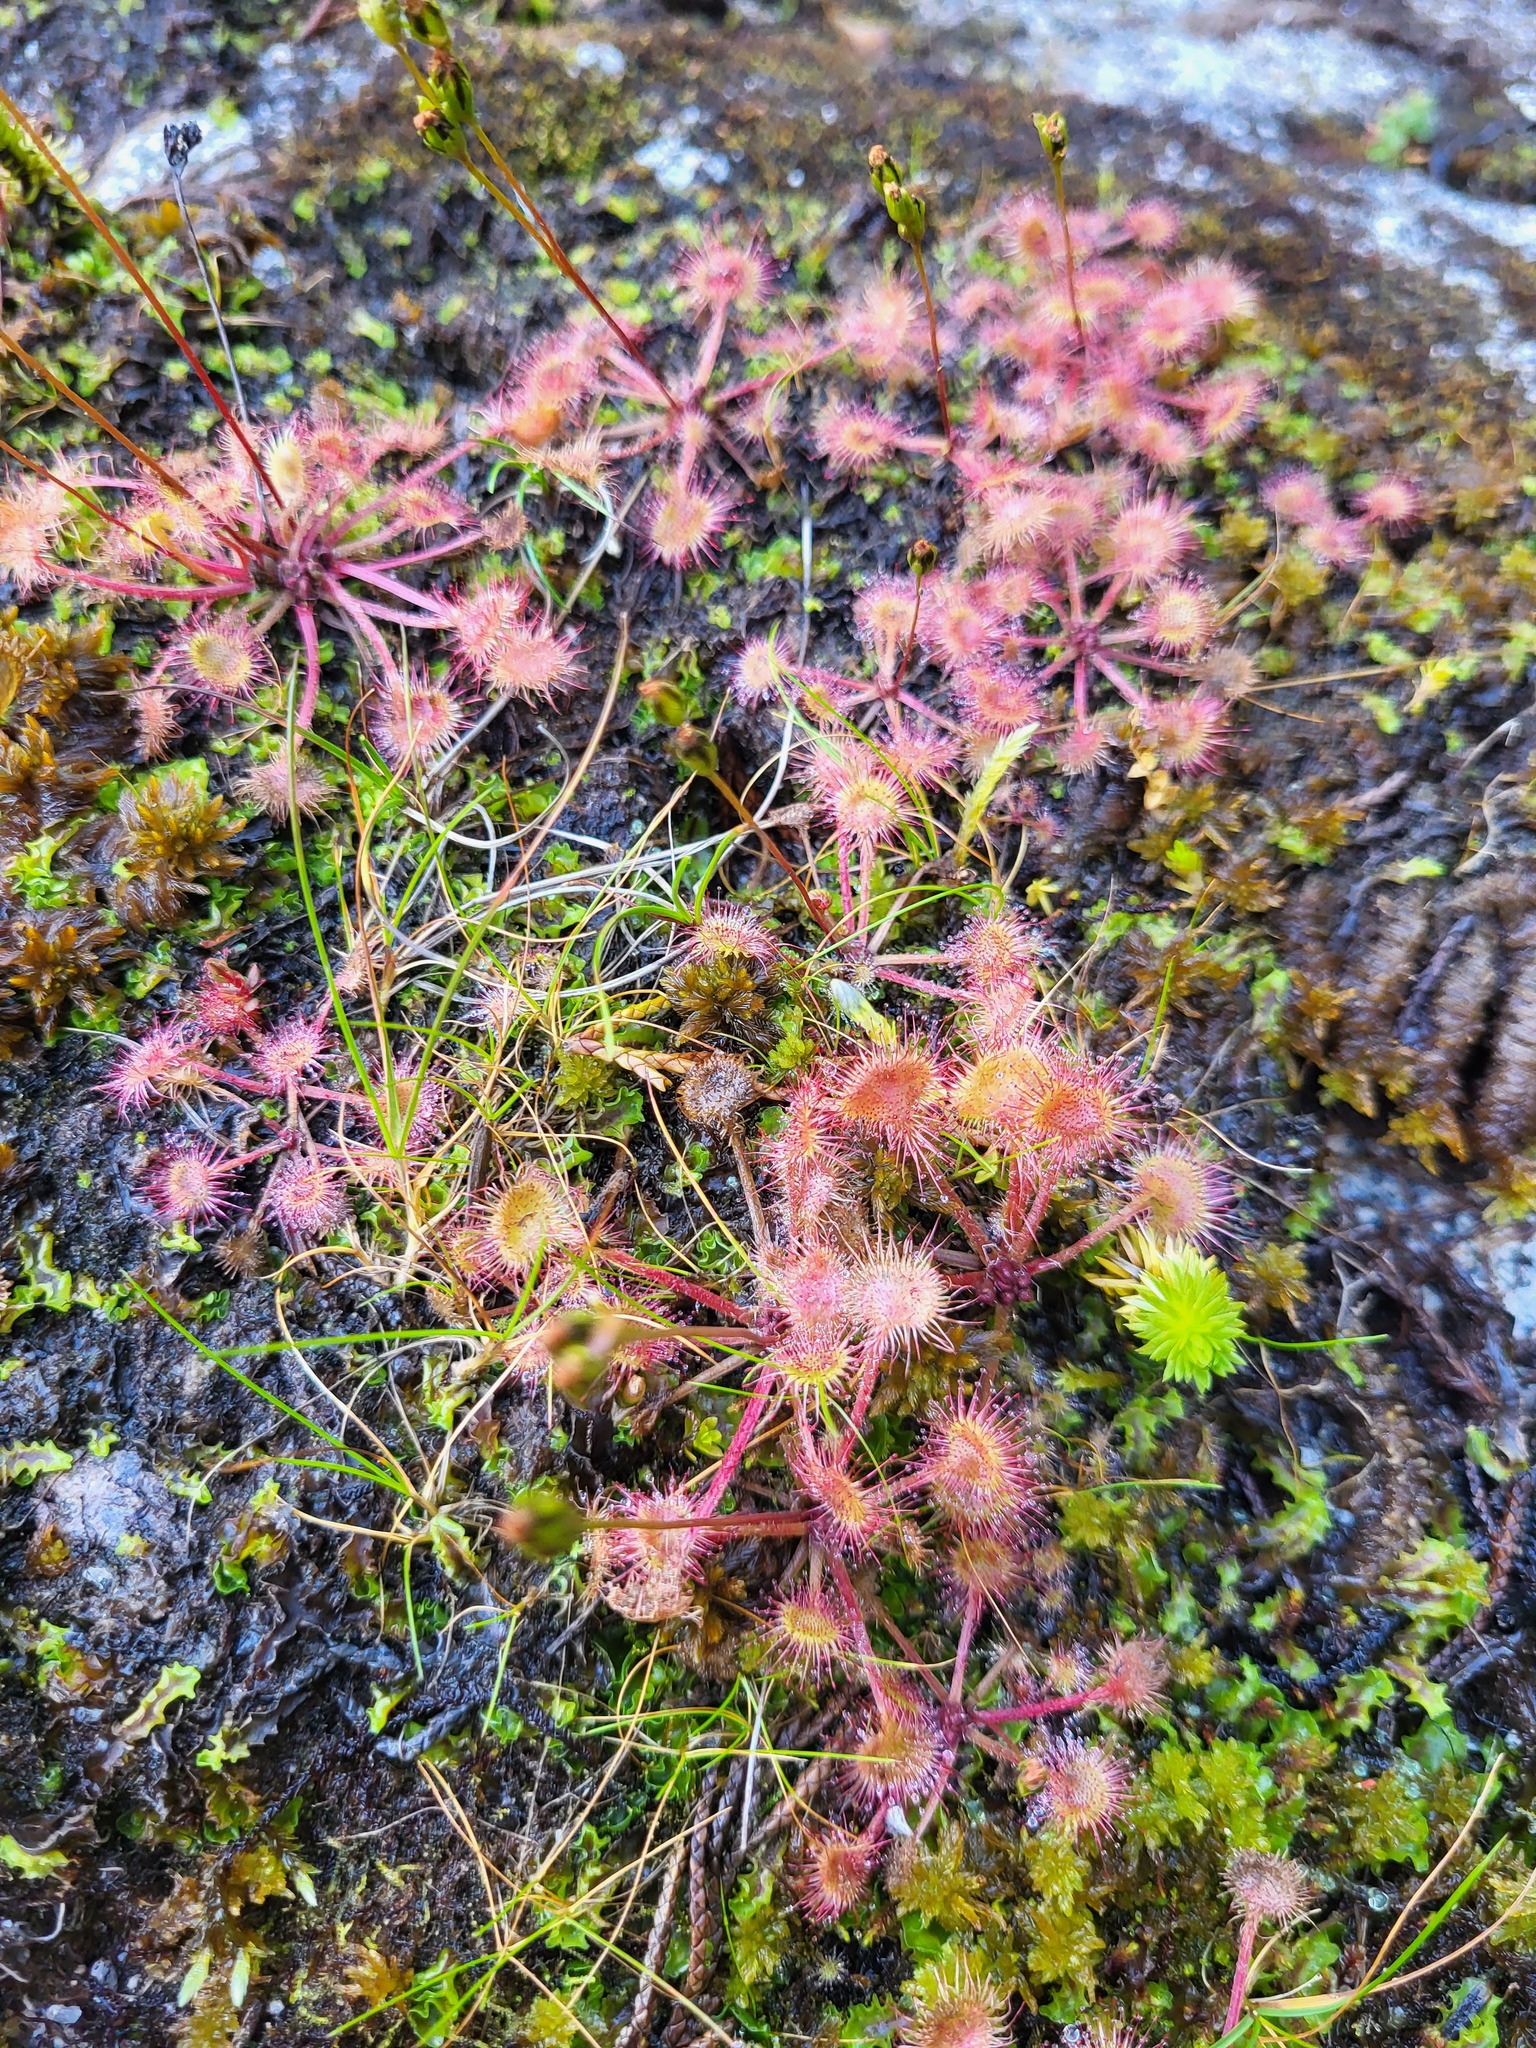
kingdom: Plantae
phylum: Tracheophyta
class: Magnoliopsida
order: Caryophyllales
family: Droseraceae
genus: Drosera
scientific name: Drosera rotundifolia
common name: Round-leaved sundew
